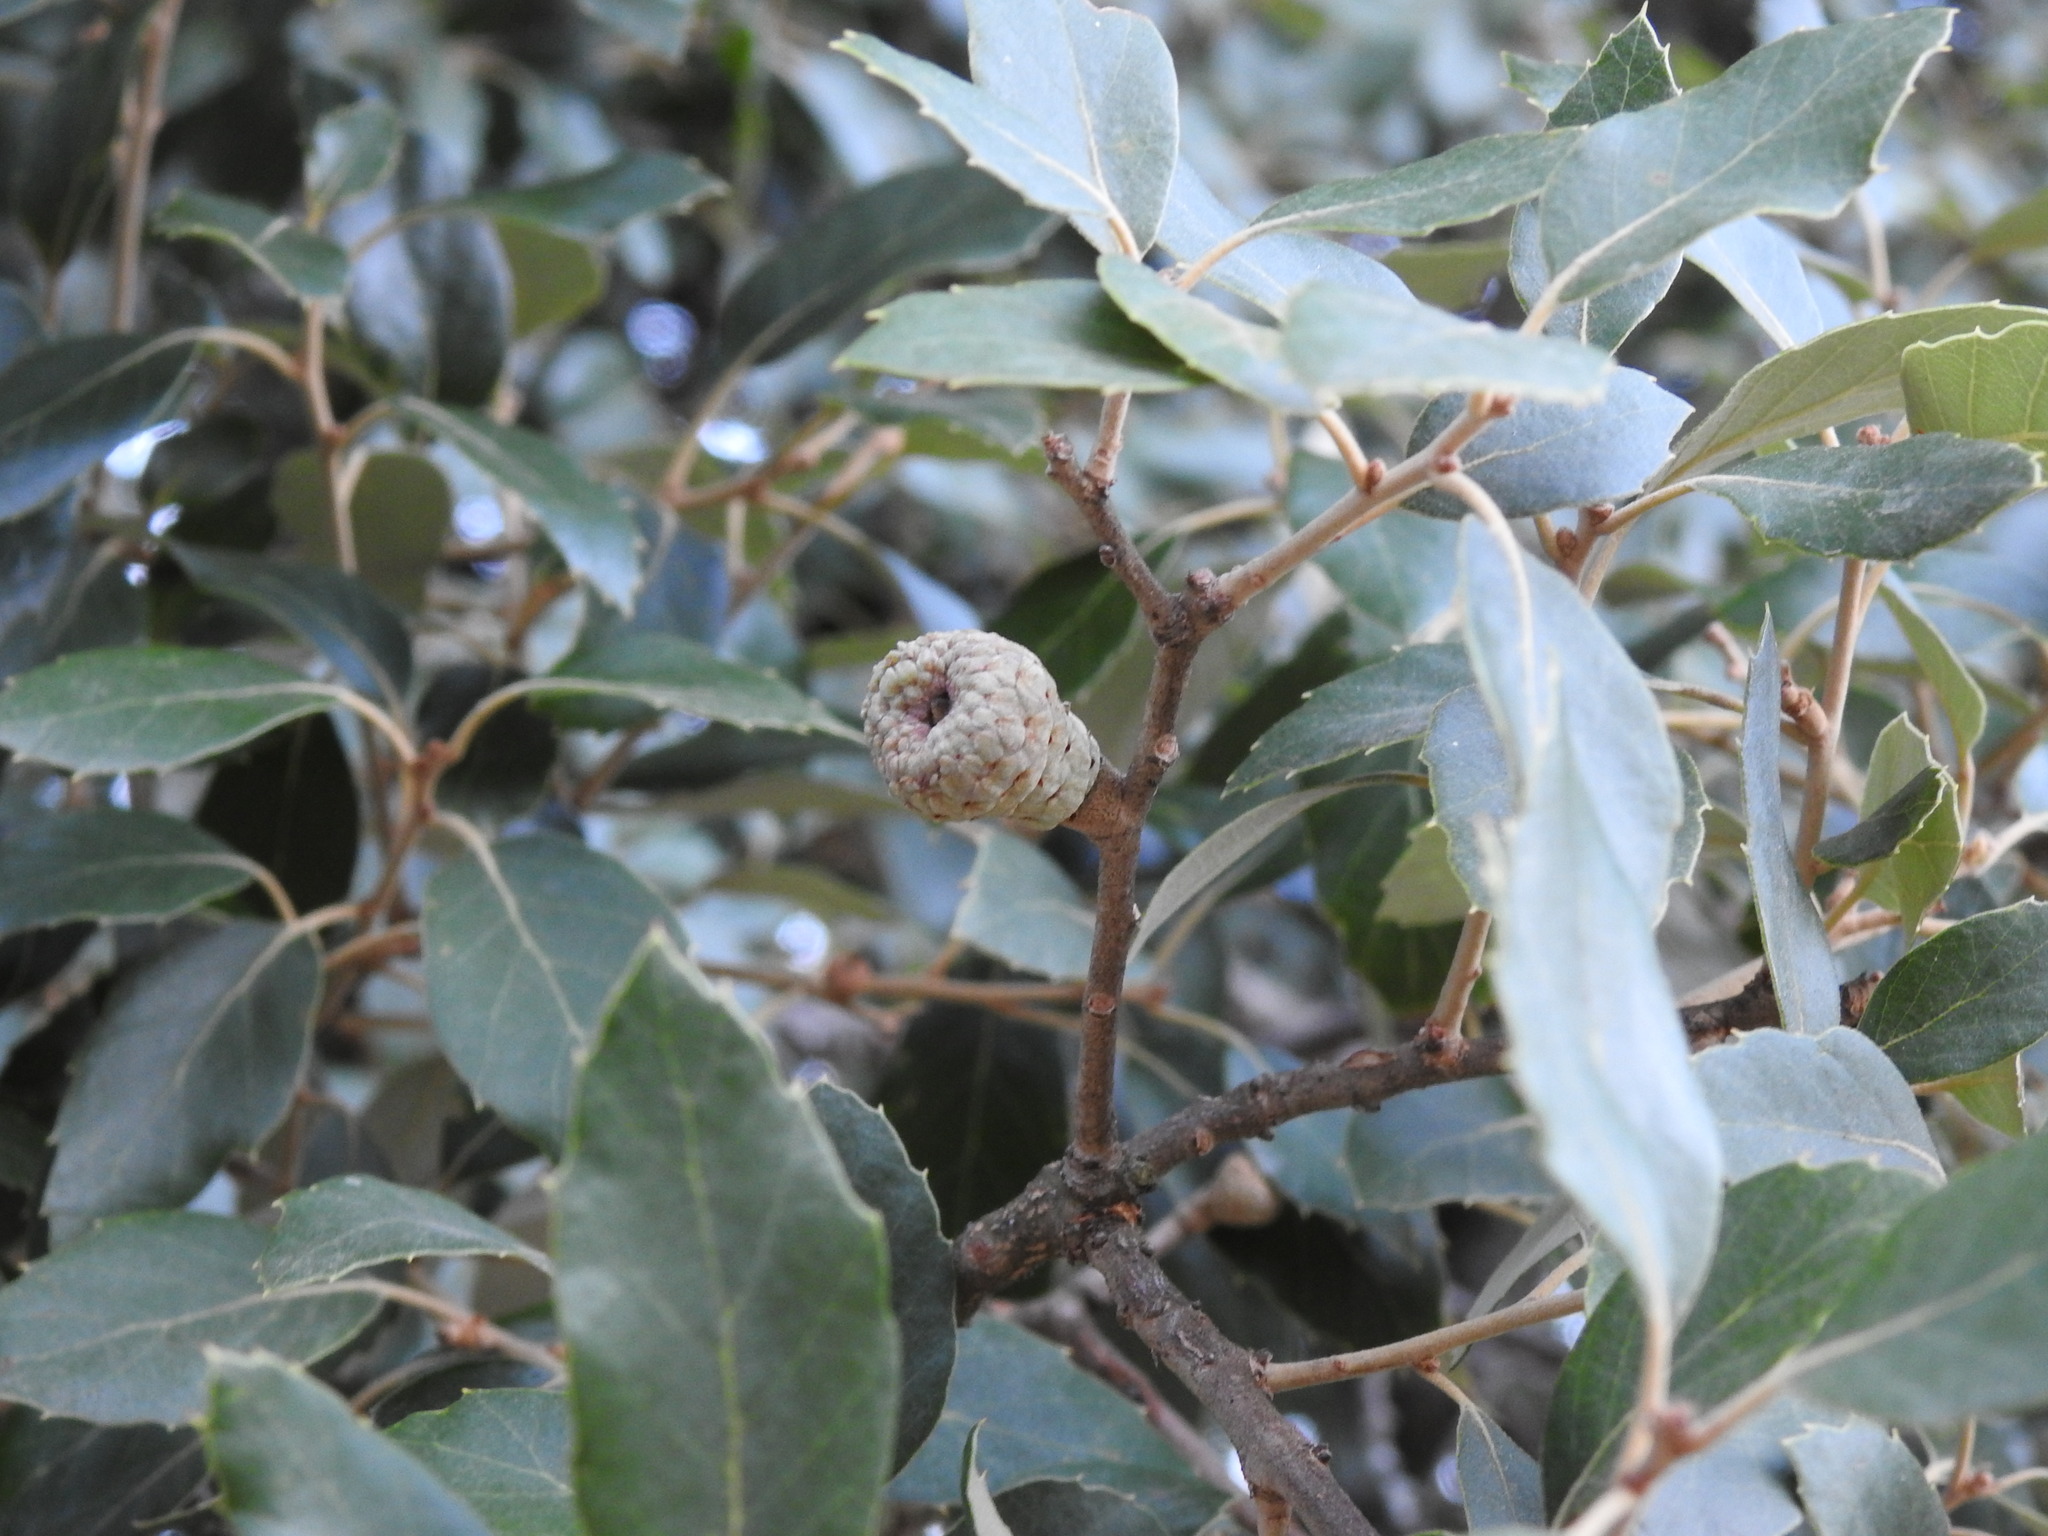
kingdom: Plantae
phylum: Tracheophyta
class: Magnoliopsida
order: Fagales
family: Fagaceae
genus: Quercus
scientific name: Quercus suber
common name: Cork oak
